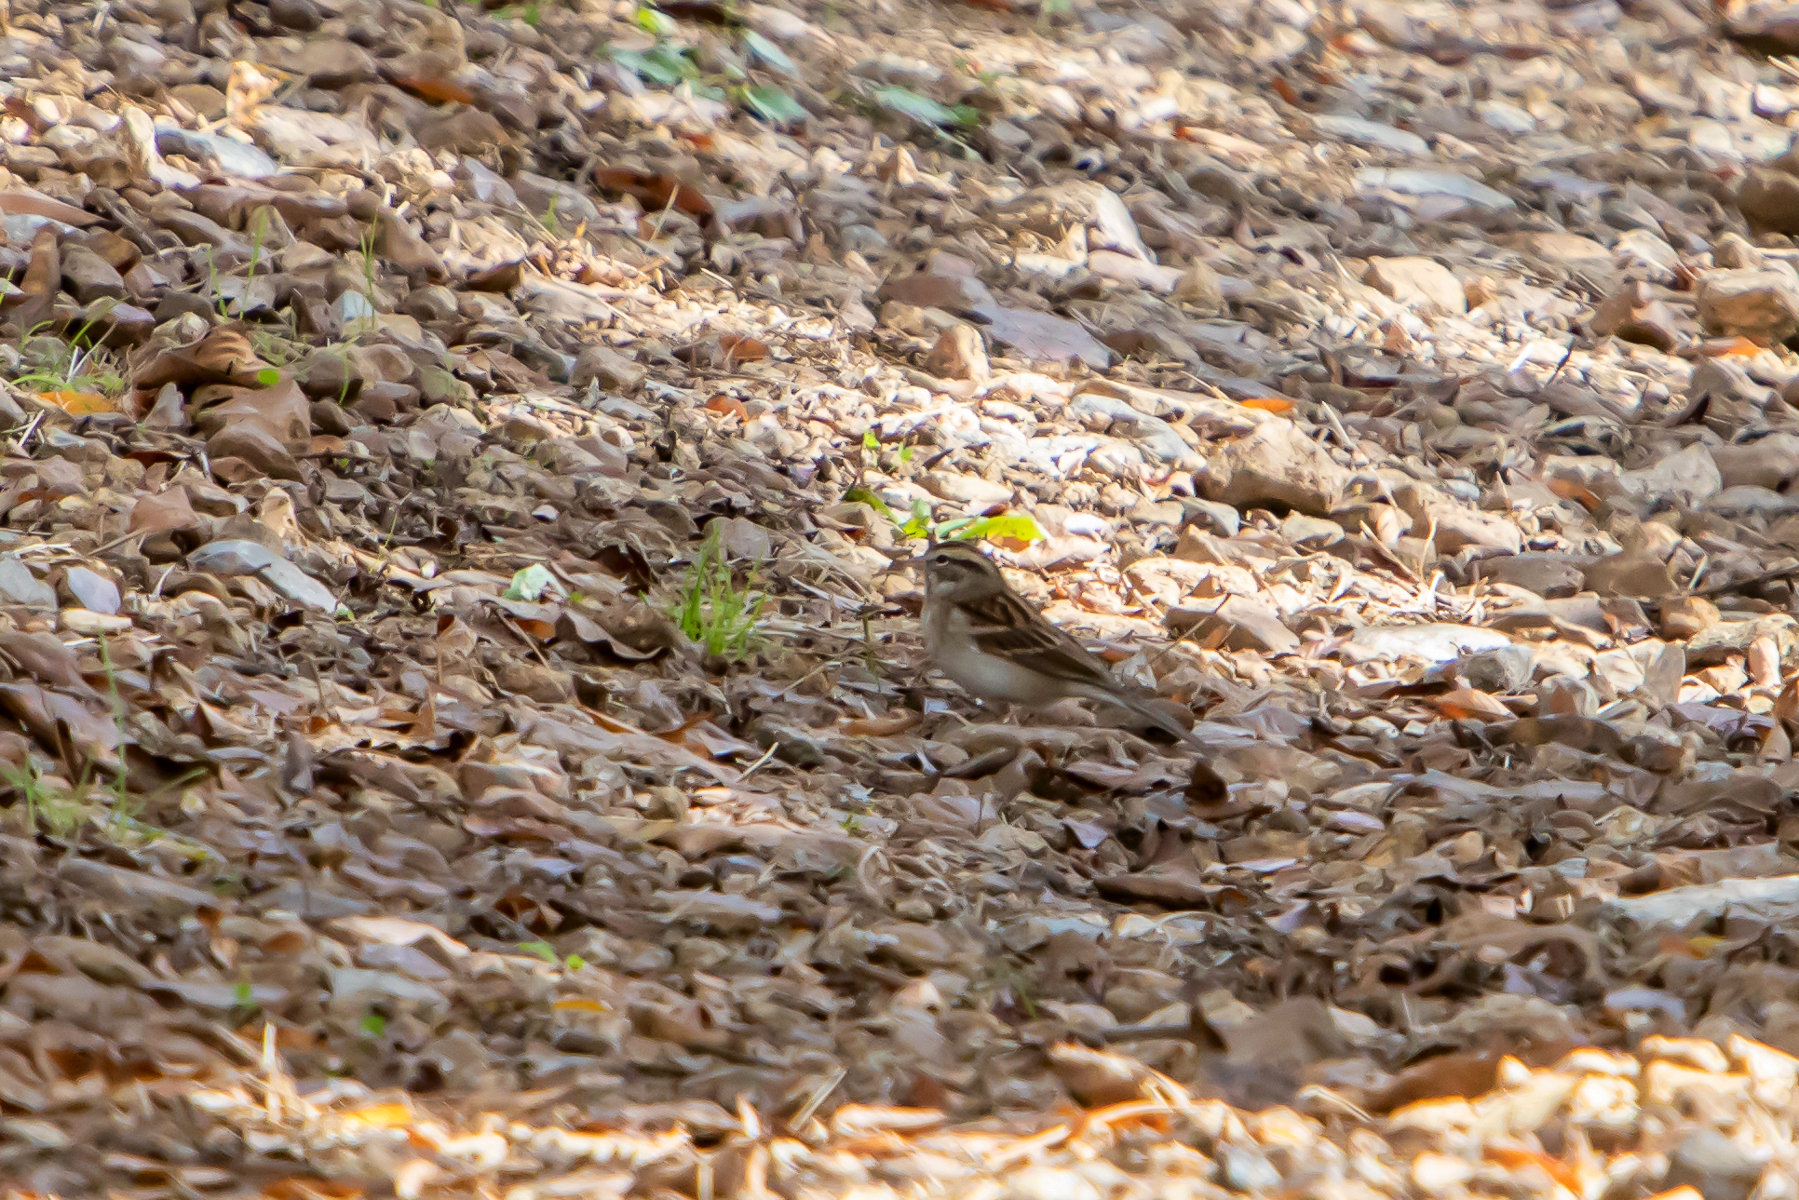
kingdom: Animalia
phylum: Chordata
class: Aves
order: Passeriformes
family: Passerellidae
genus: Spizella
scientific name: Spizella passerina
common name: Chipping sparrow
